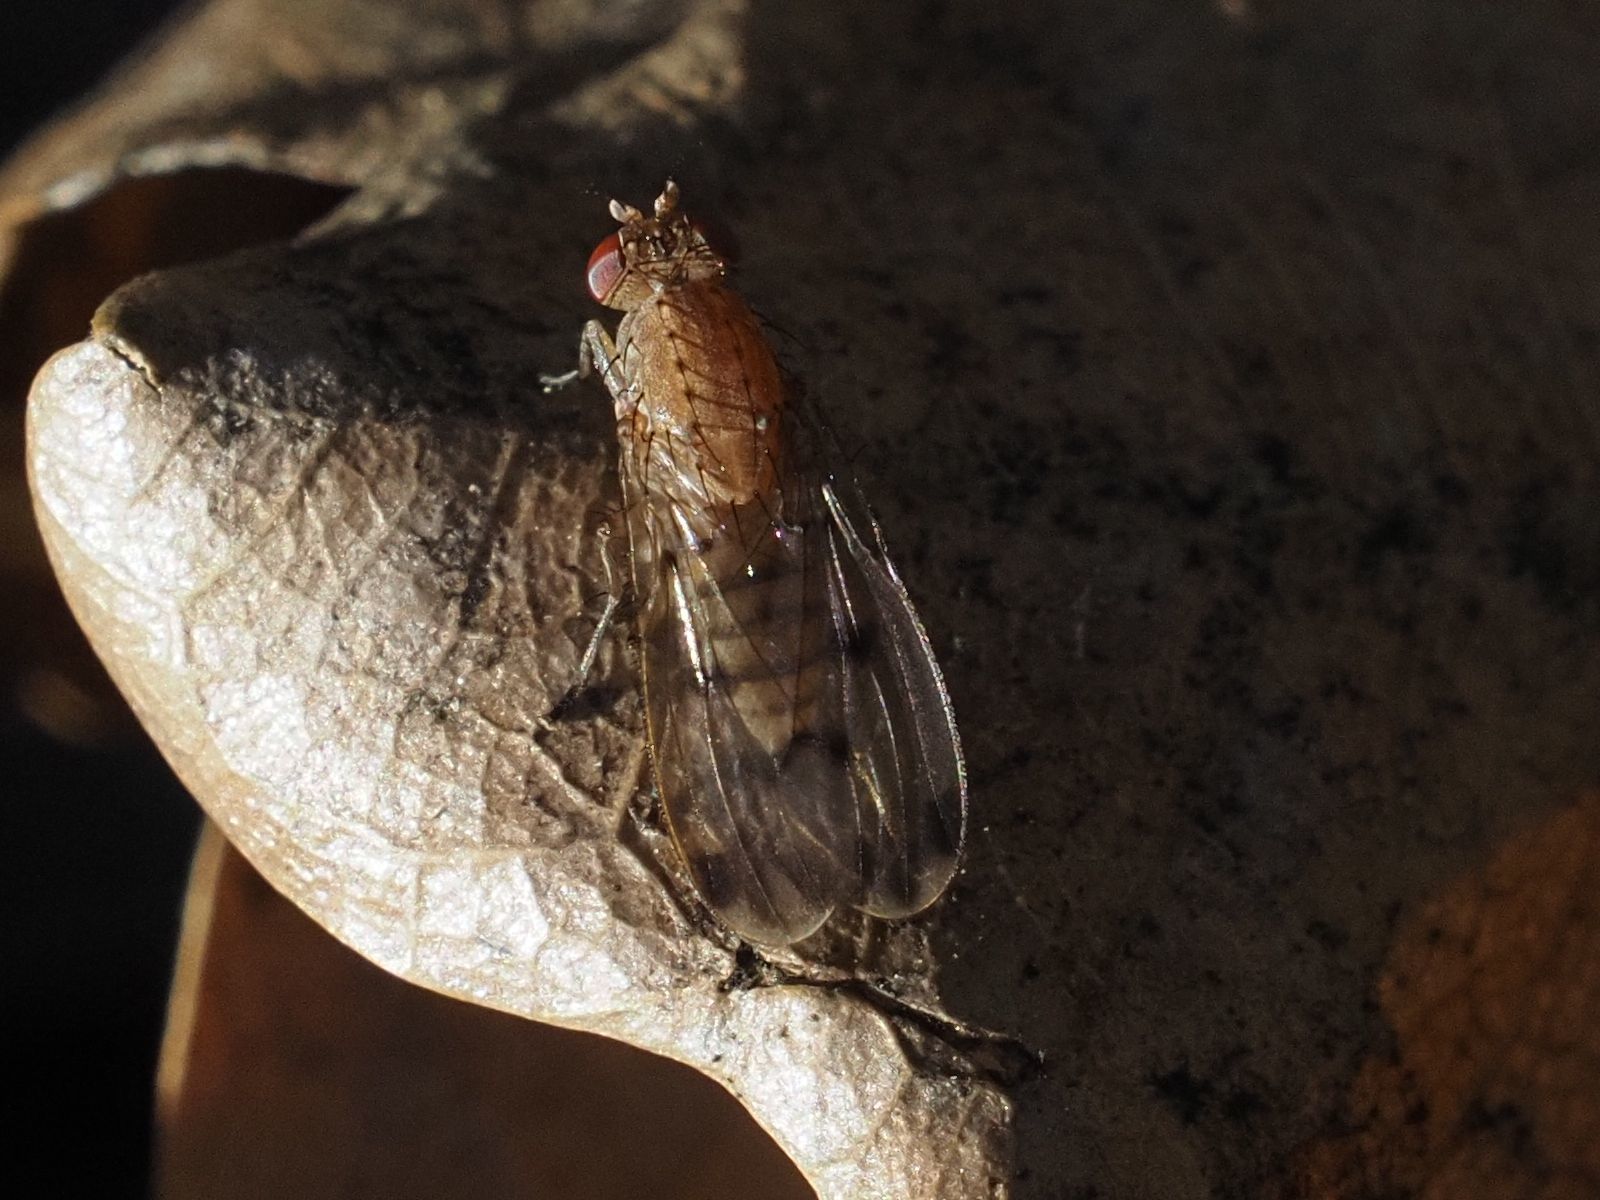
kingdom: Animalia
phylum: Arthropoda
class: Insecta
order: Diptera
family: Heleomyzidae
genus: Suillia
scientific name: Suillia variegata
